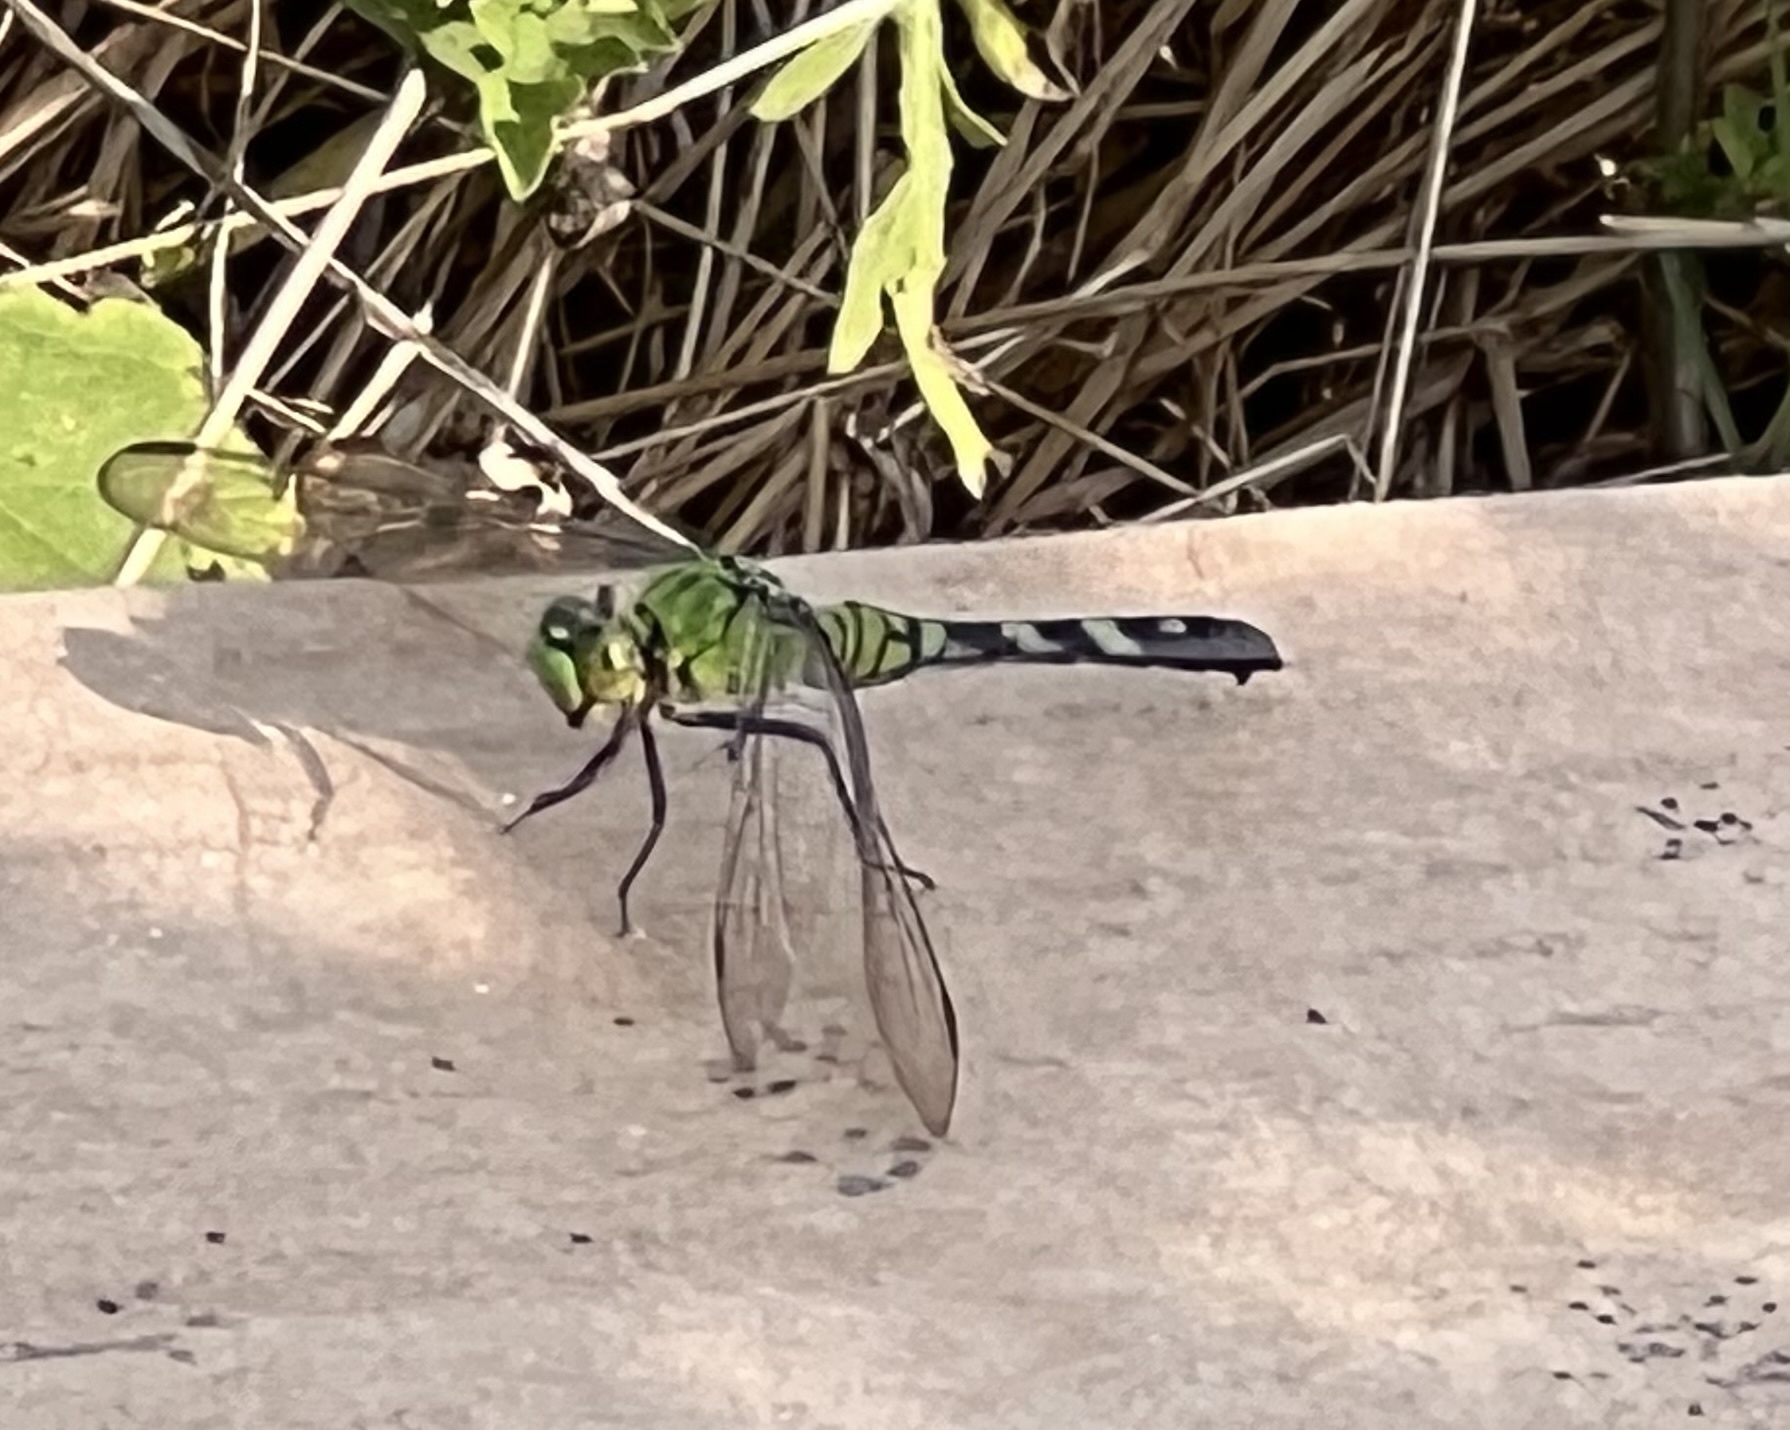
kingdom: Animalia
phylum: Arthropoda
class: Insecta
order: Odonata
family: Libellulidae
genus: Erythemis
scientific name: Erythemis simplicicollis
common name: Eastern pondhawk
